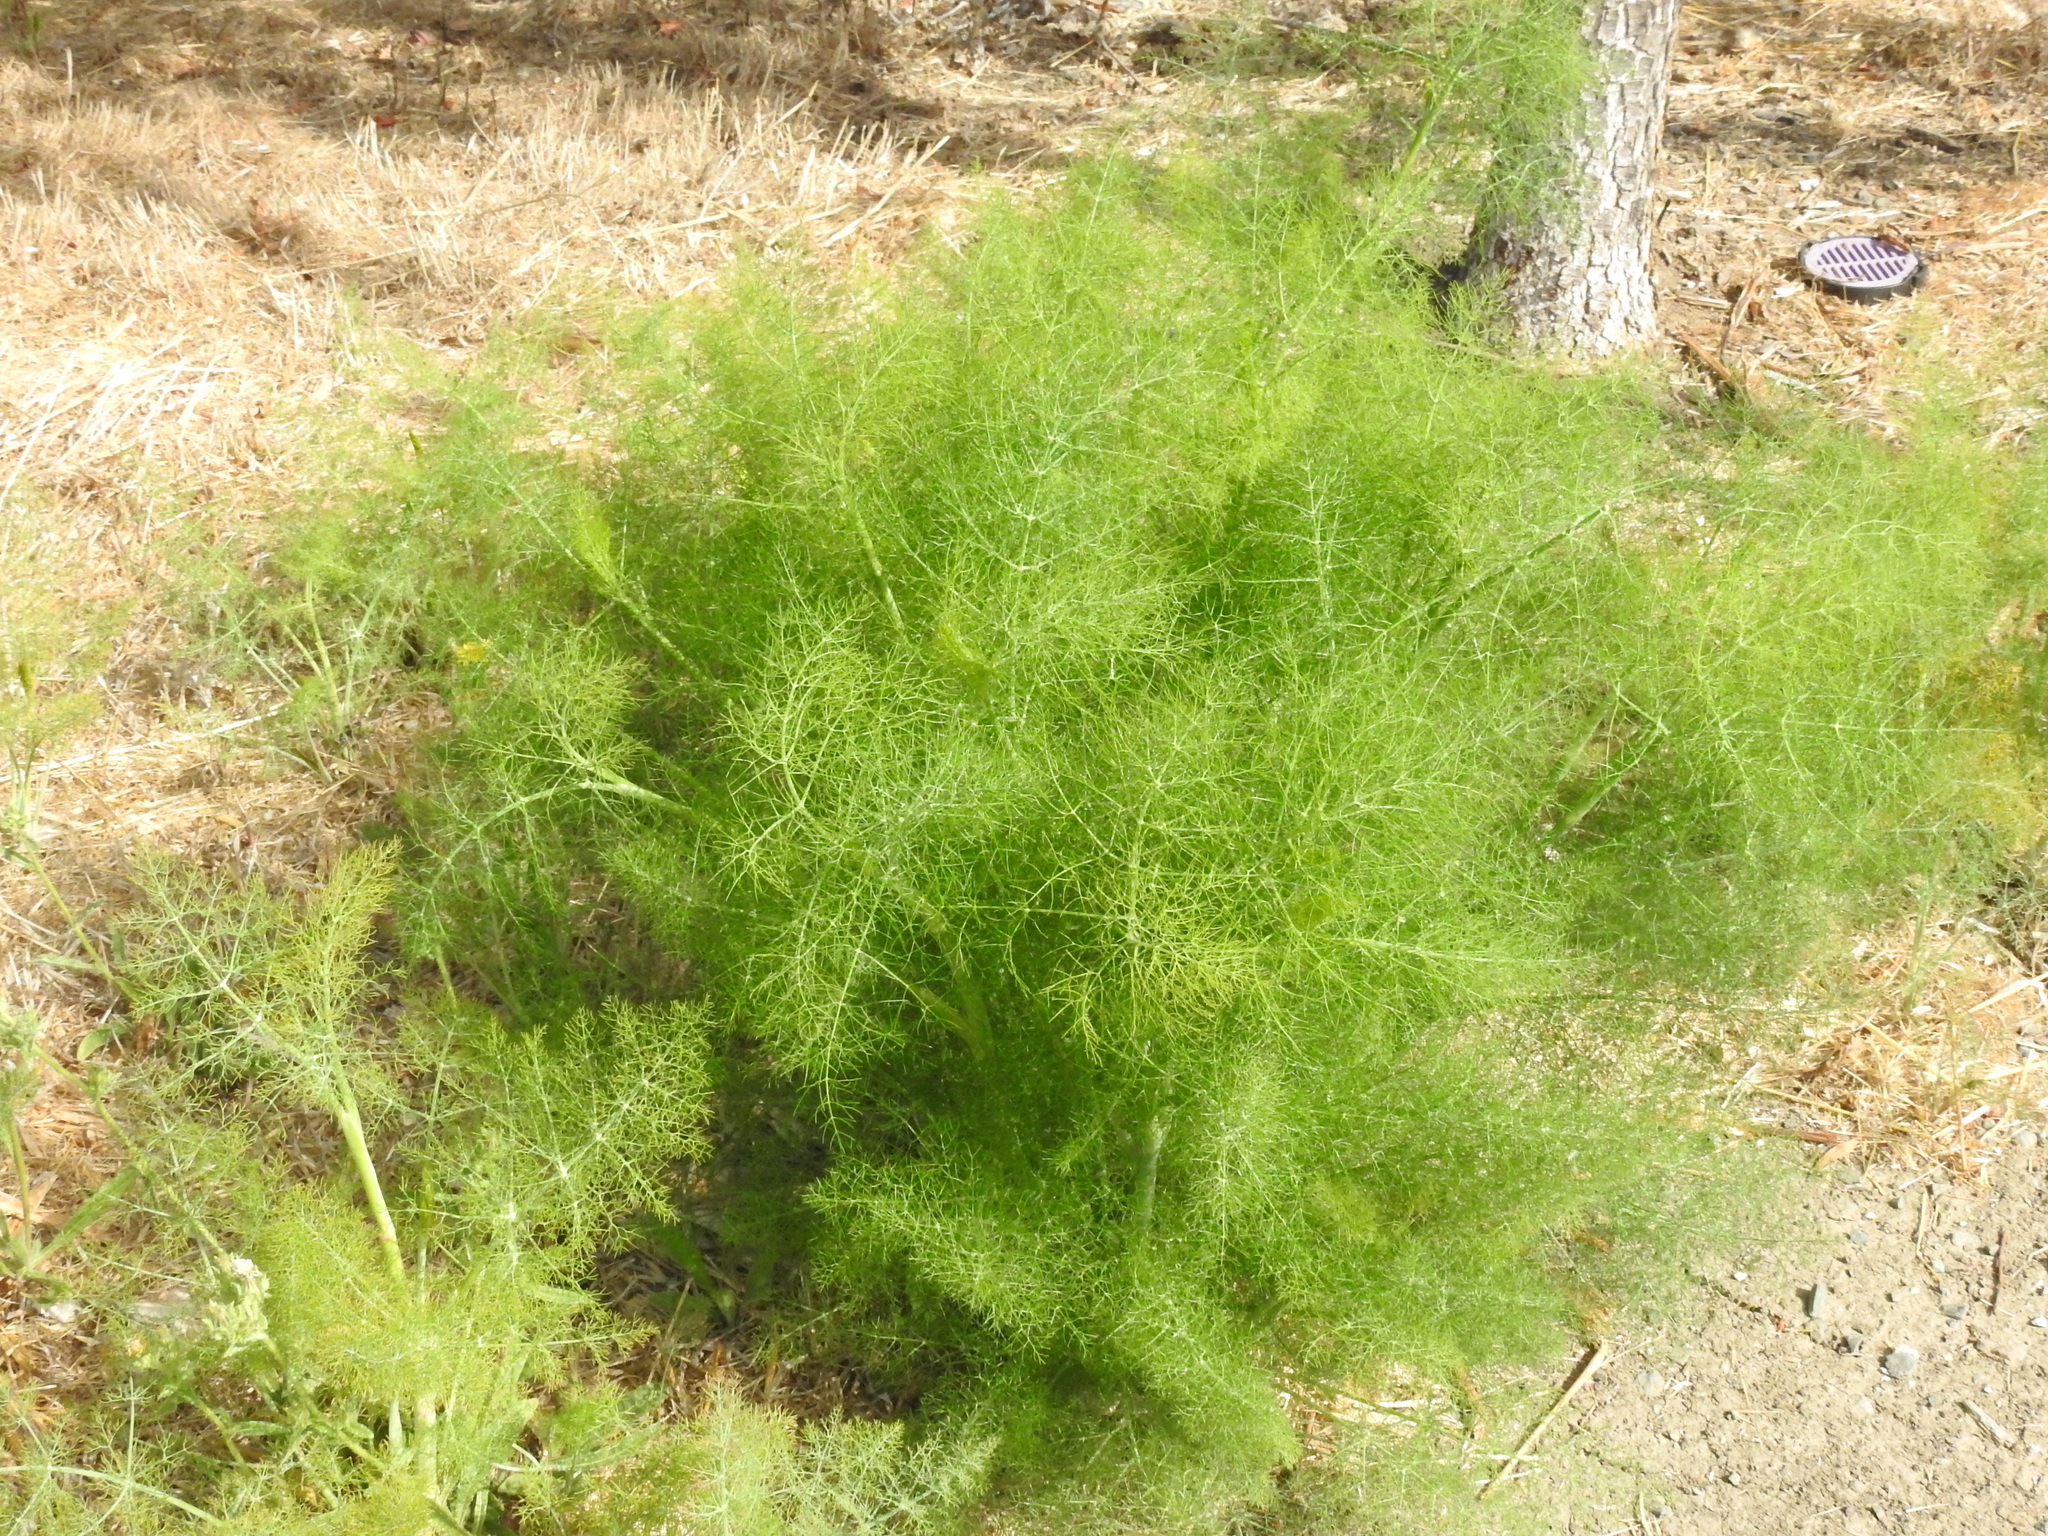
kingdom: Plantae
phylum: Tracheophyta
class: Magnoliopsida
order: Apiales
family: Apiaceae
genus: Foeniculum
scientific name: Foeniculum vulgare
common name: Fennel
